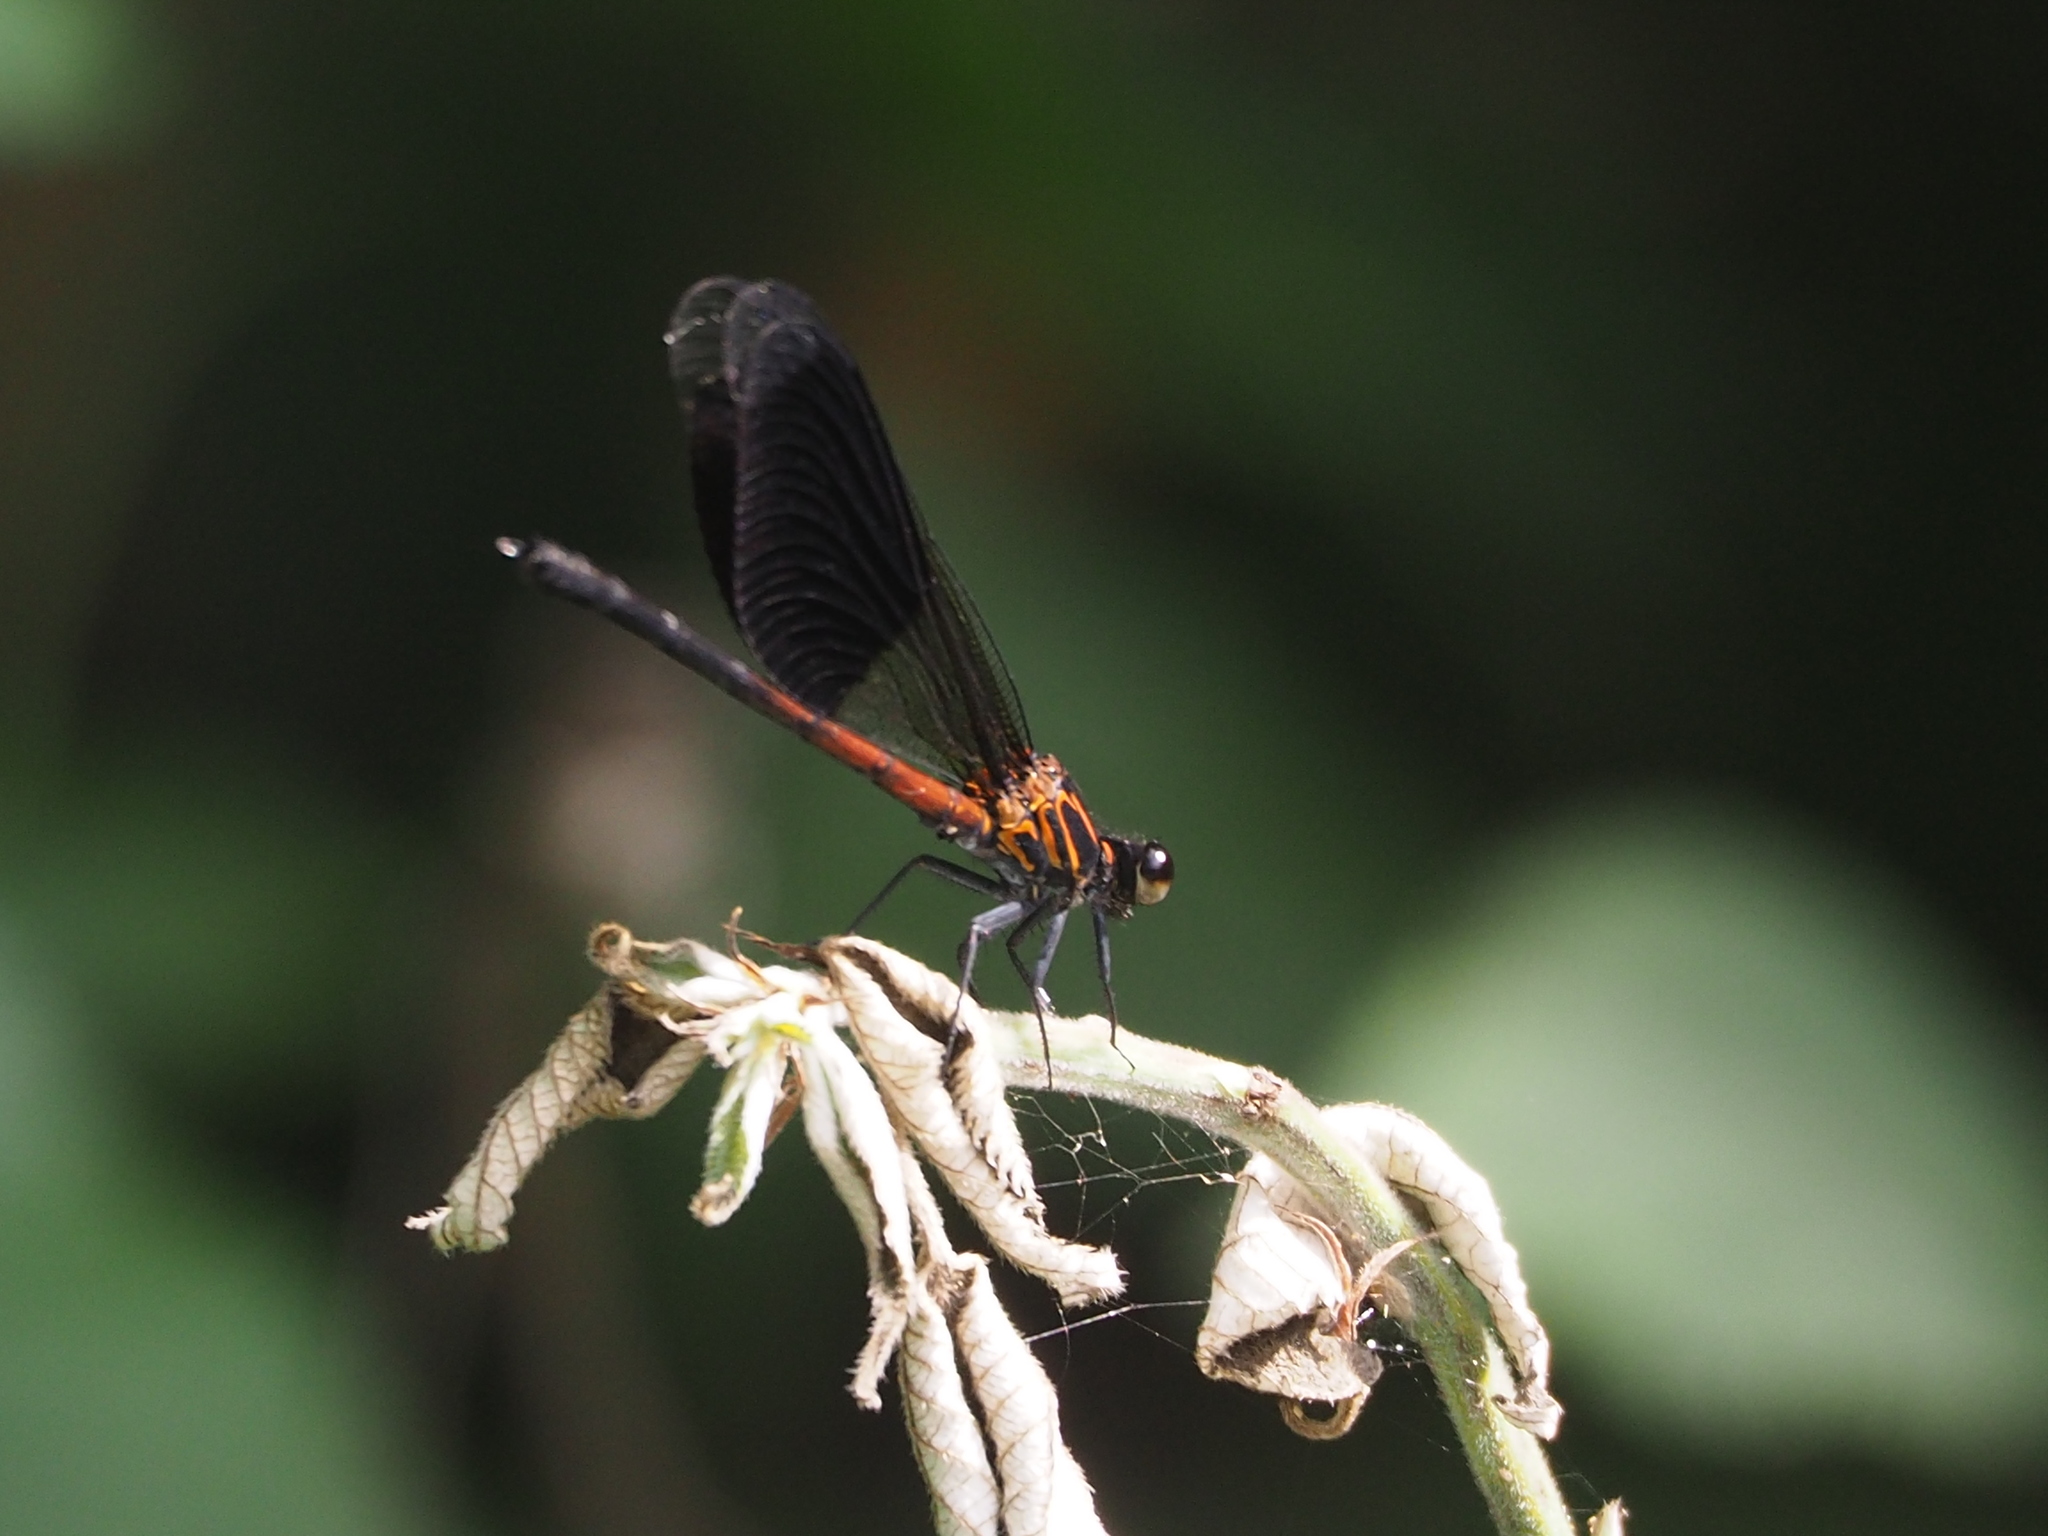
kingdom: Animalia
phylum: Arthropoda
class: Insecta
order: Odonata
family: Euphaeidae
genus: Euphaea
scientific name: Euphaea formosa
